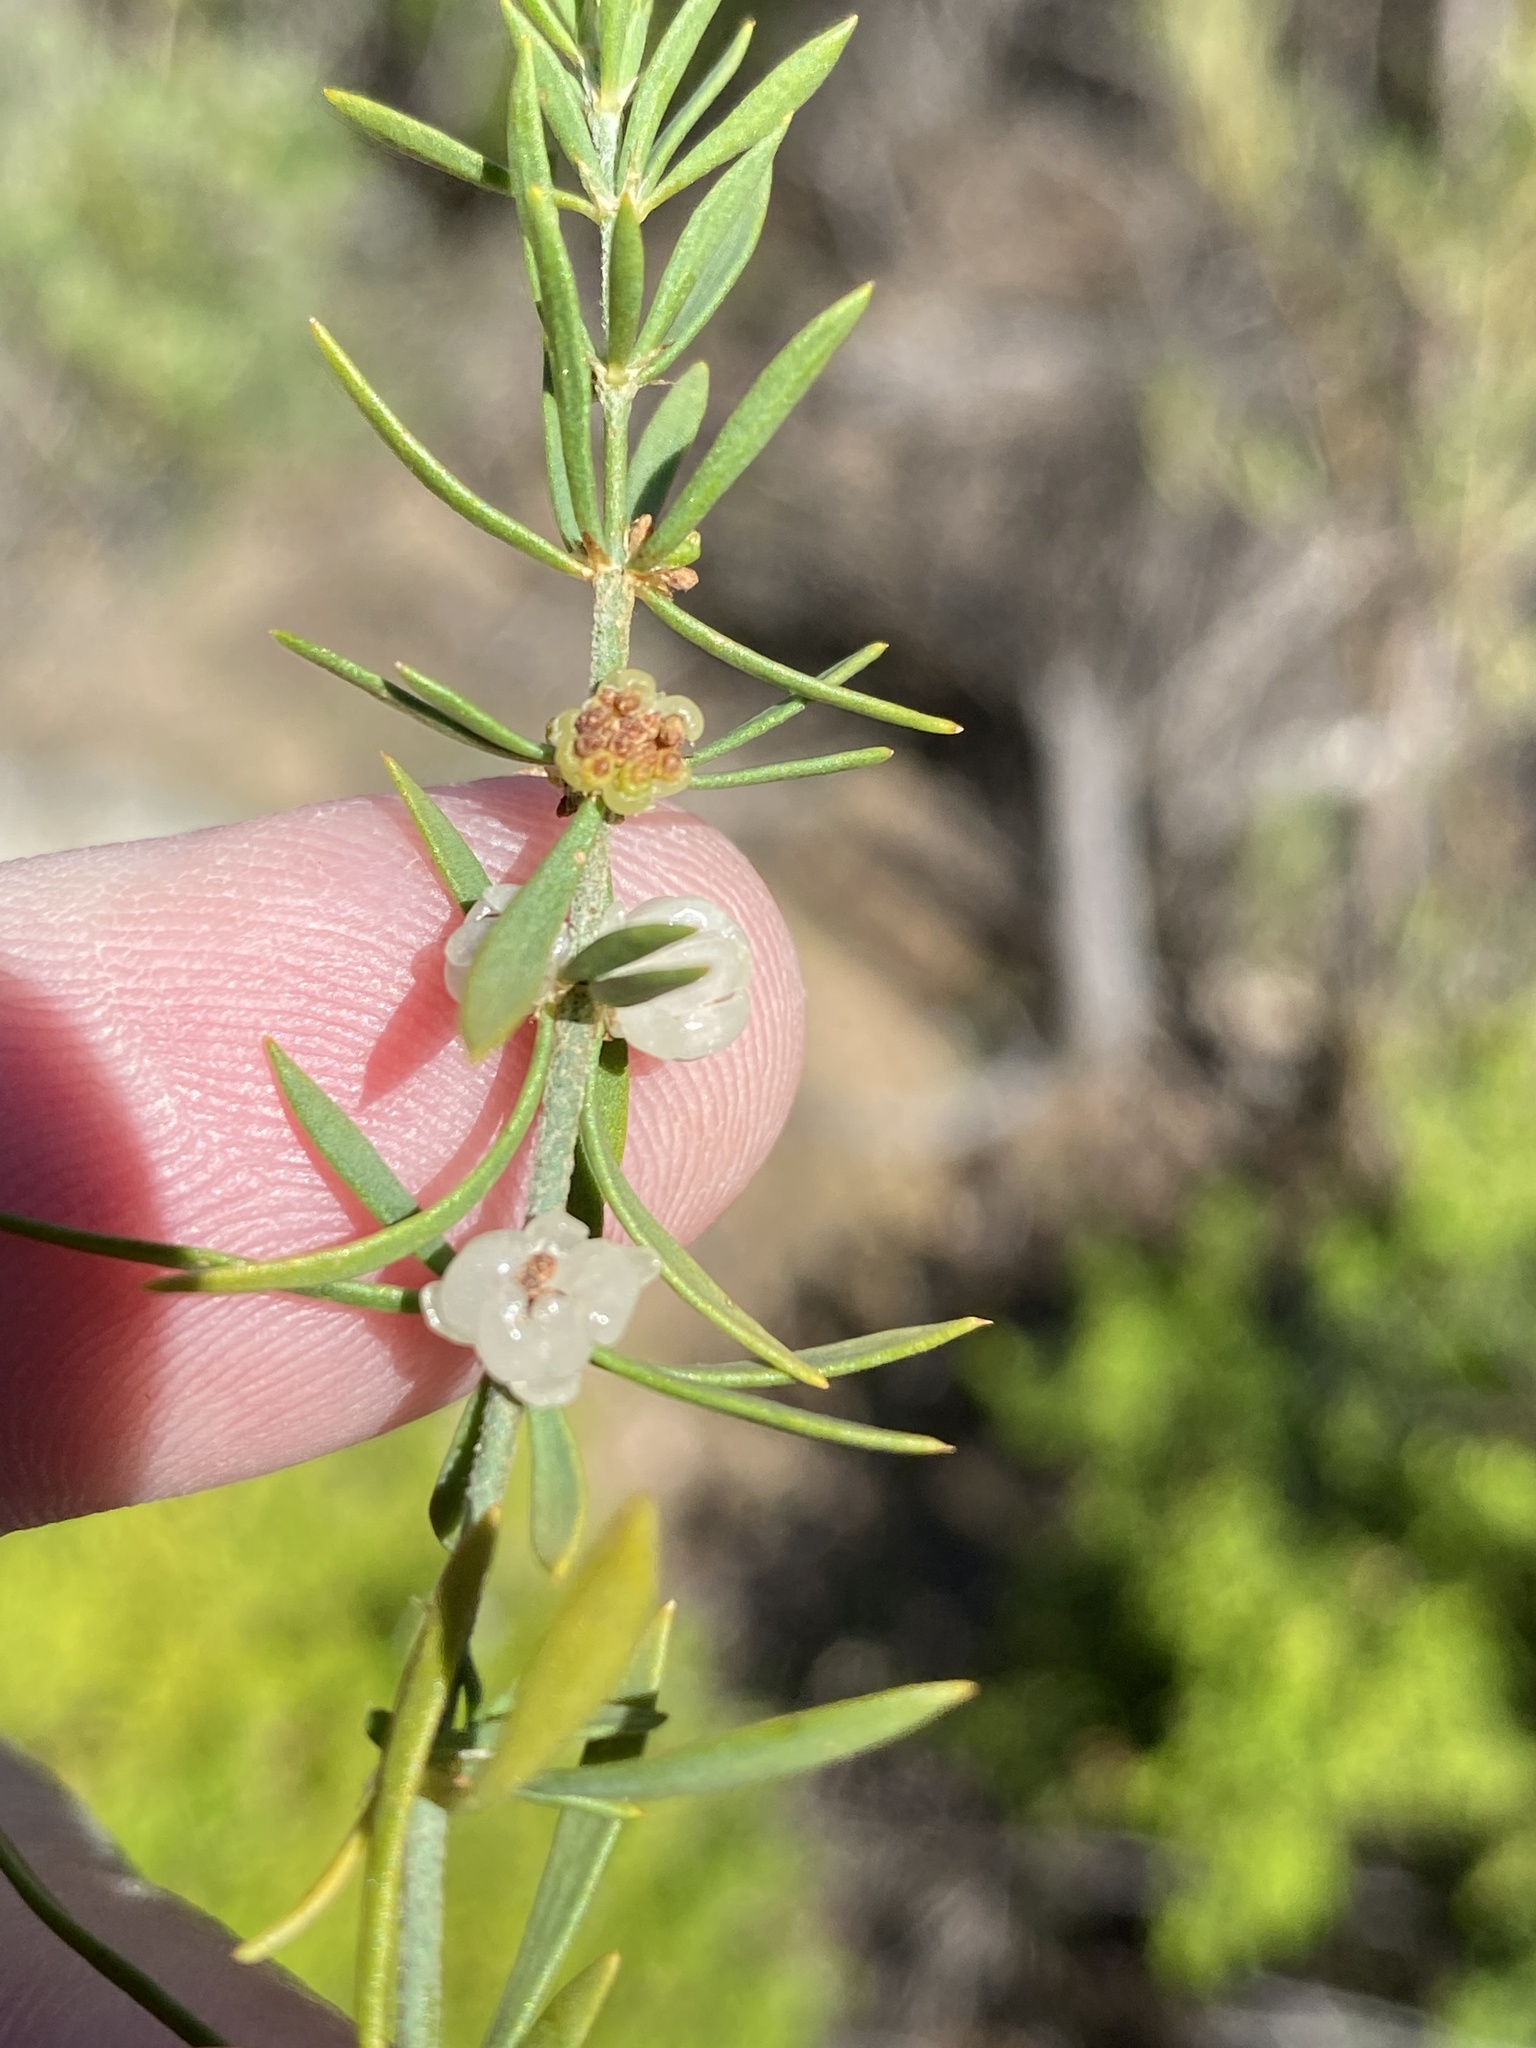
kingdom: Plantae
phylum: Tracheophyta
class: Magnoliopsida
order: Caryophyllales
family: Caryophyllaceae
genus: Pollichia
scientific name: Pollichia campestris
